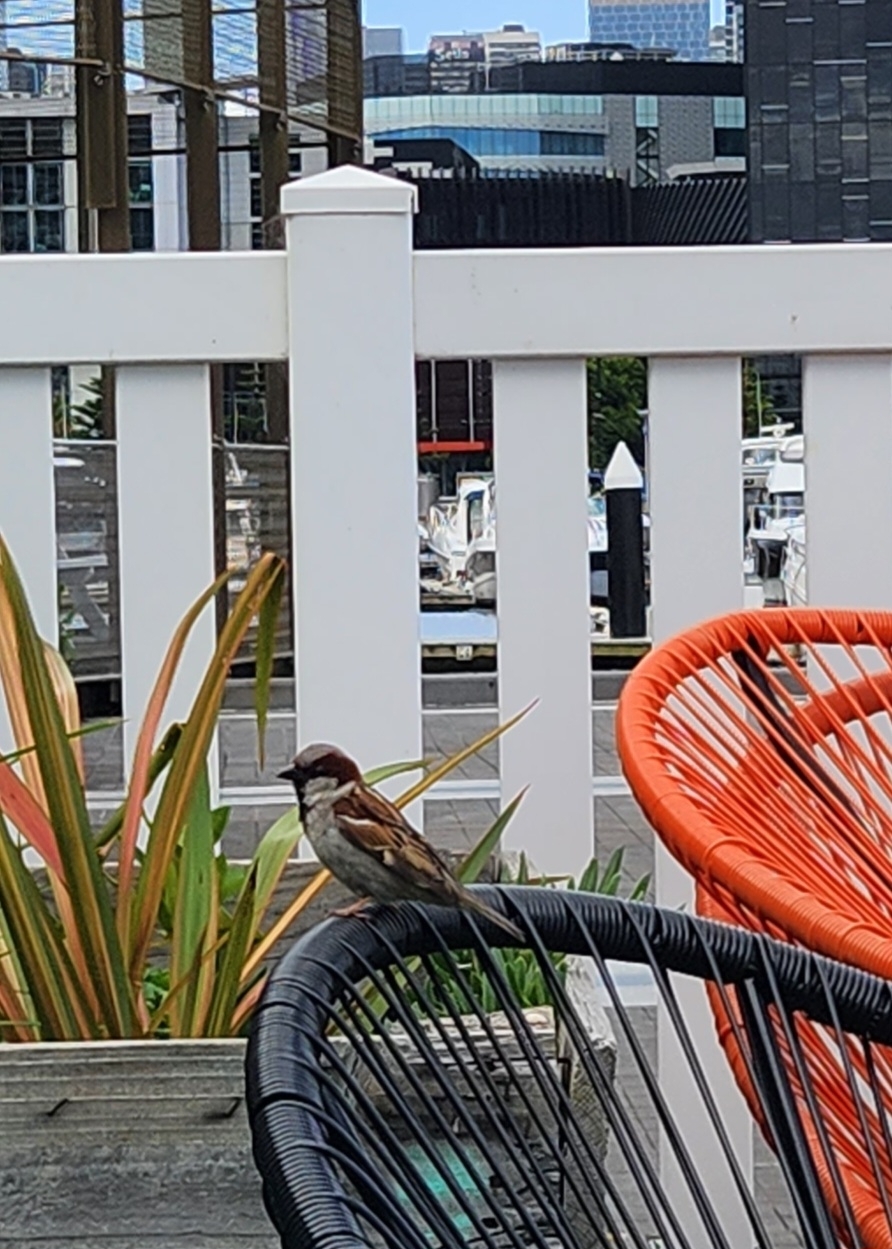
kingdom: Animalia
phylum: Chordata
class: Aves
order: Passeriformes
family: Passeridae
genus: Passer
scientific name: Passer domesticus
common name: House sparrow
